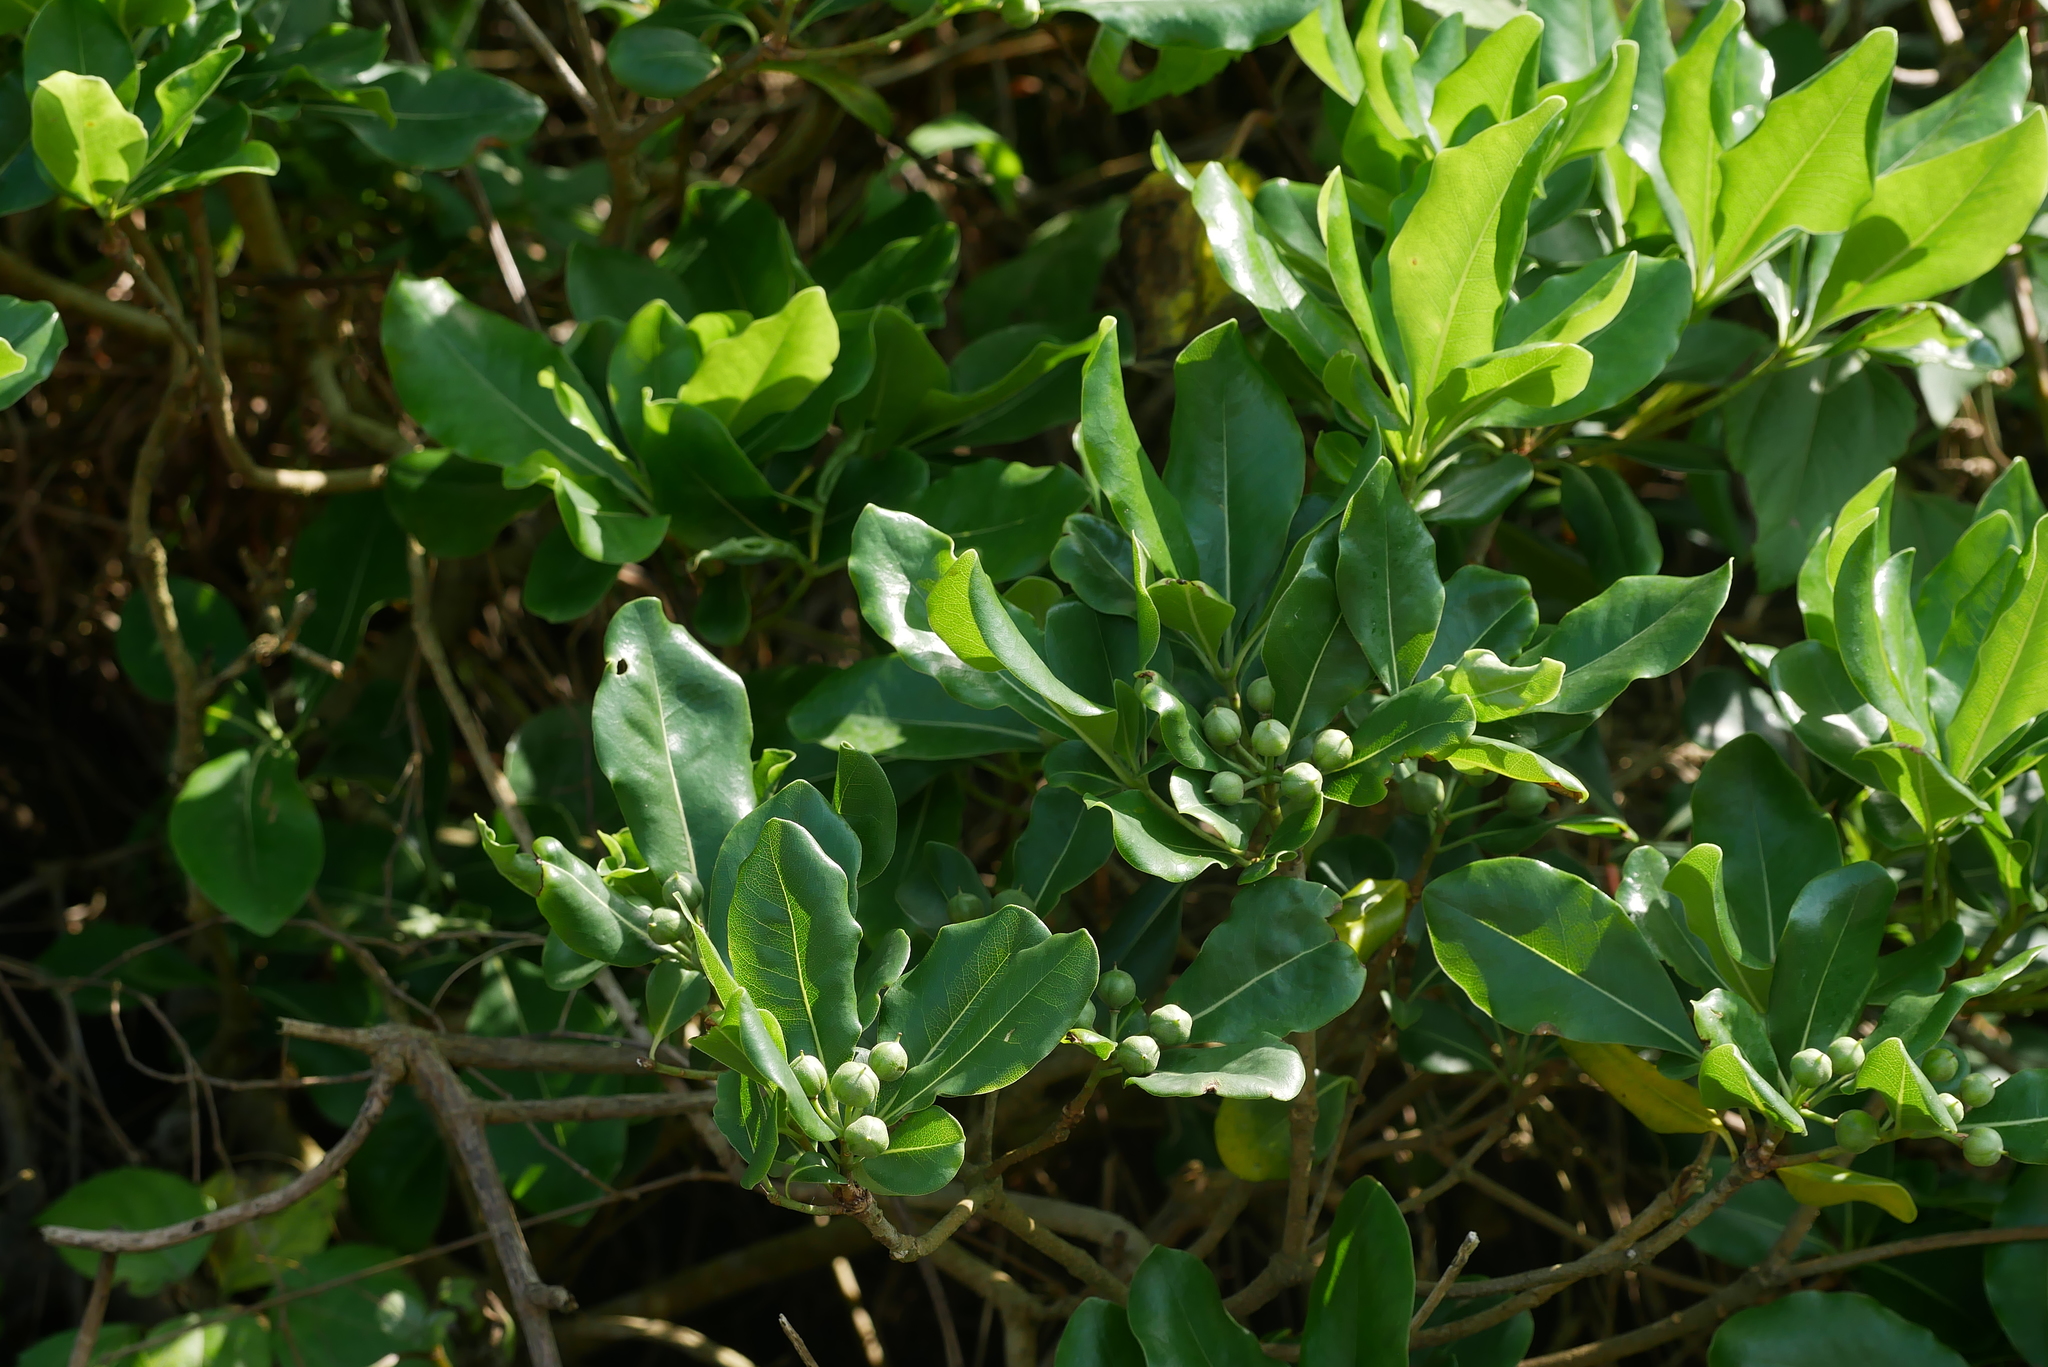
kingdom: Plantae
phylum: Tracheophyta
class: Magnoliopsida
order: Apiales
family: Pittosporaceae
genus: Pittosporum
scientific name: Pittosporum tobira
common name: Japanese cheesewood
